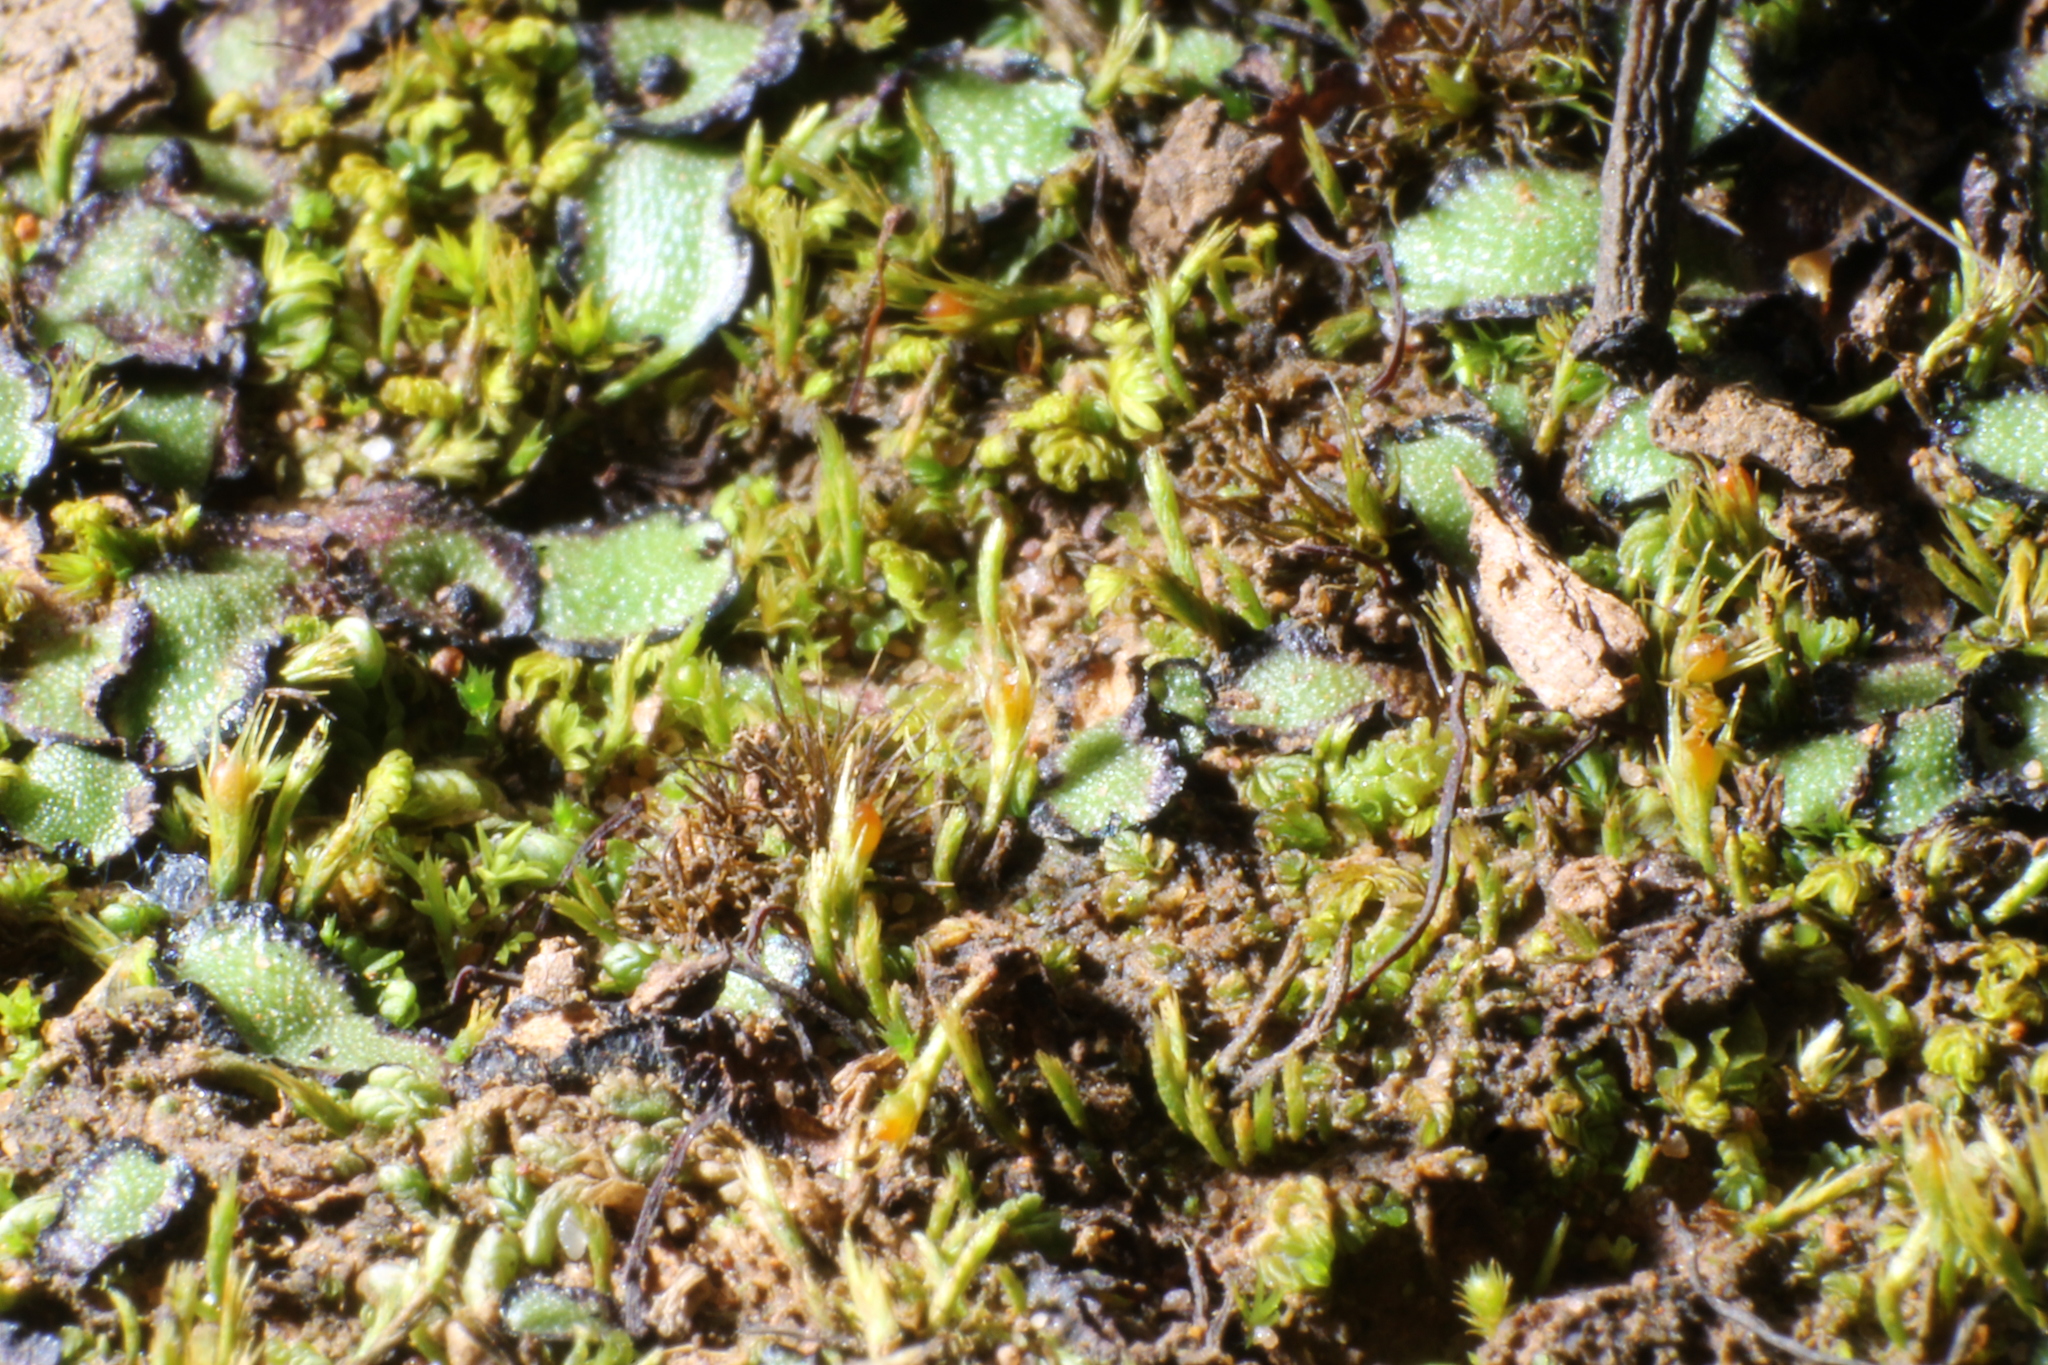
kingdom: Plantae
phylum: Marchantiophyta
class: Marchantiopsida
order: Marchantiales
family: Aytoniaceae
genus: Asterella
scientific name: Asterella drummondii
